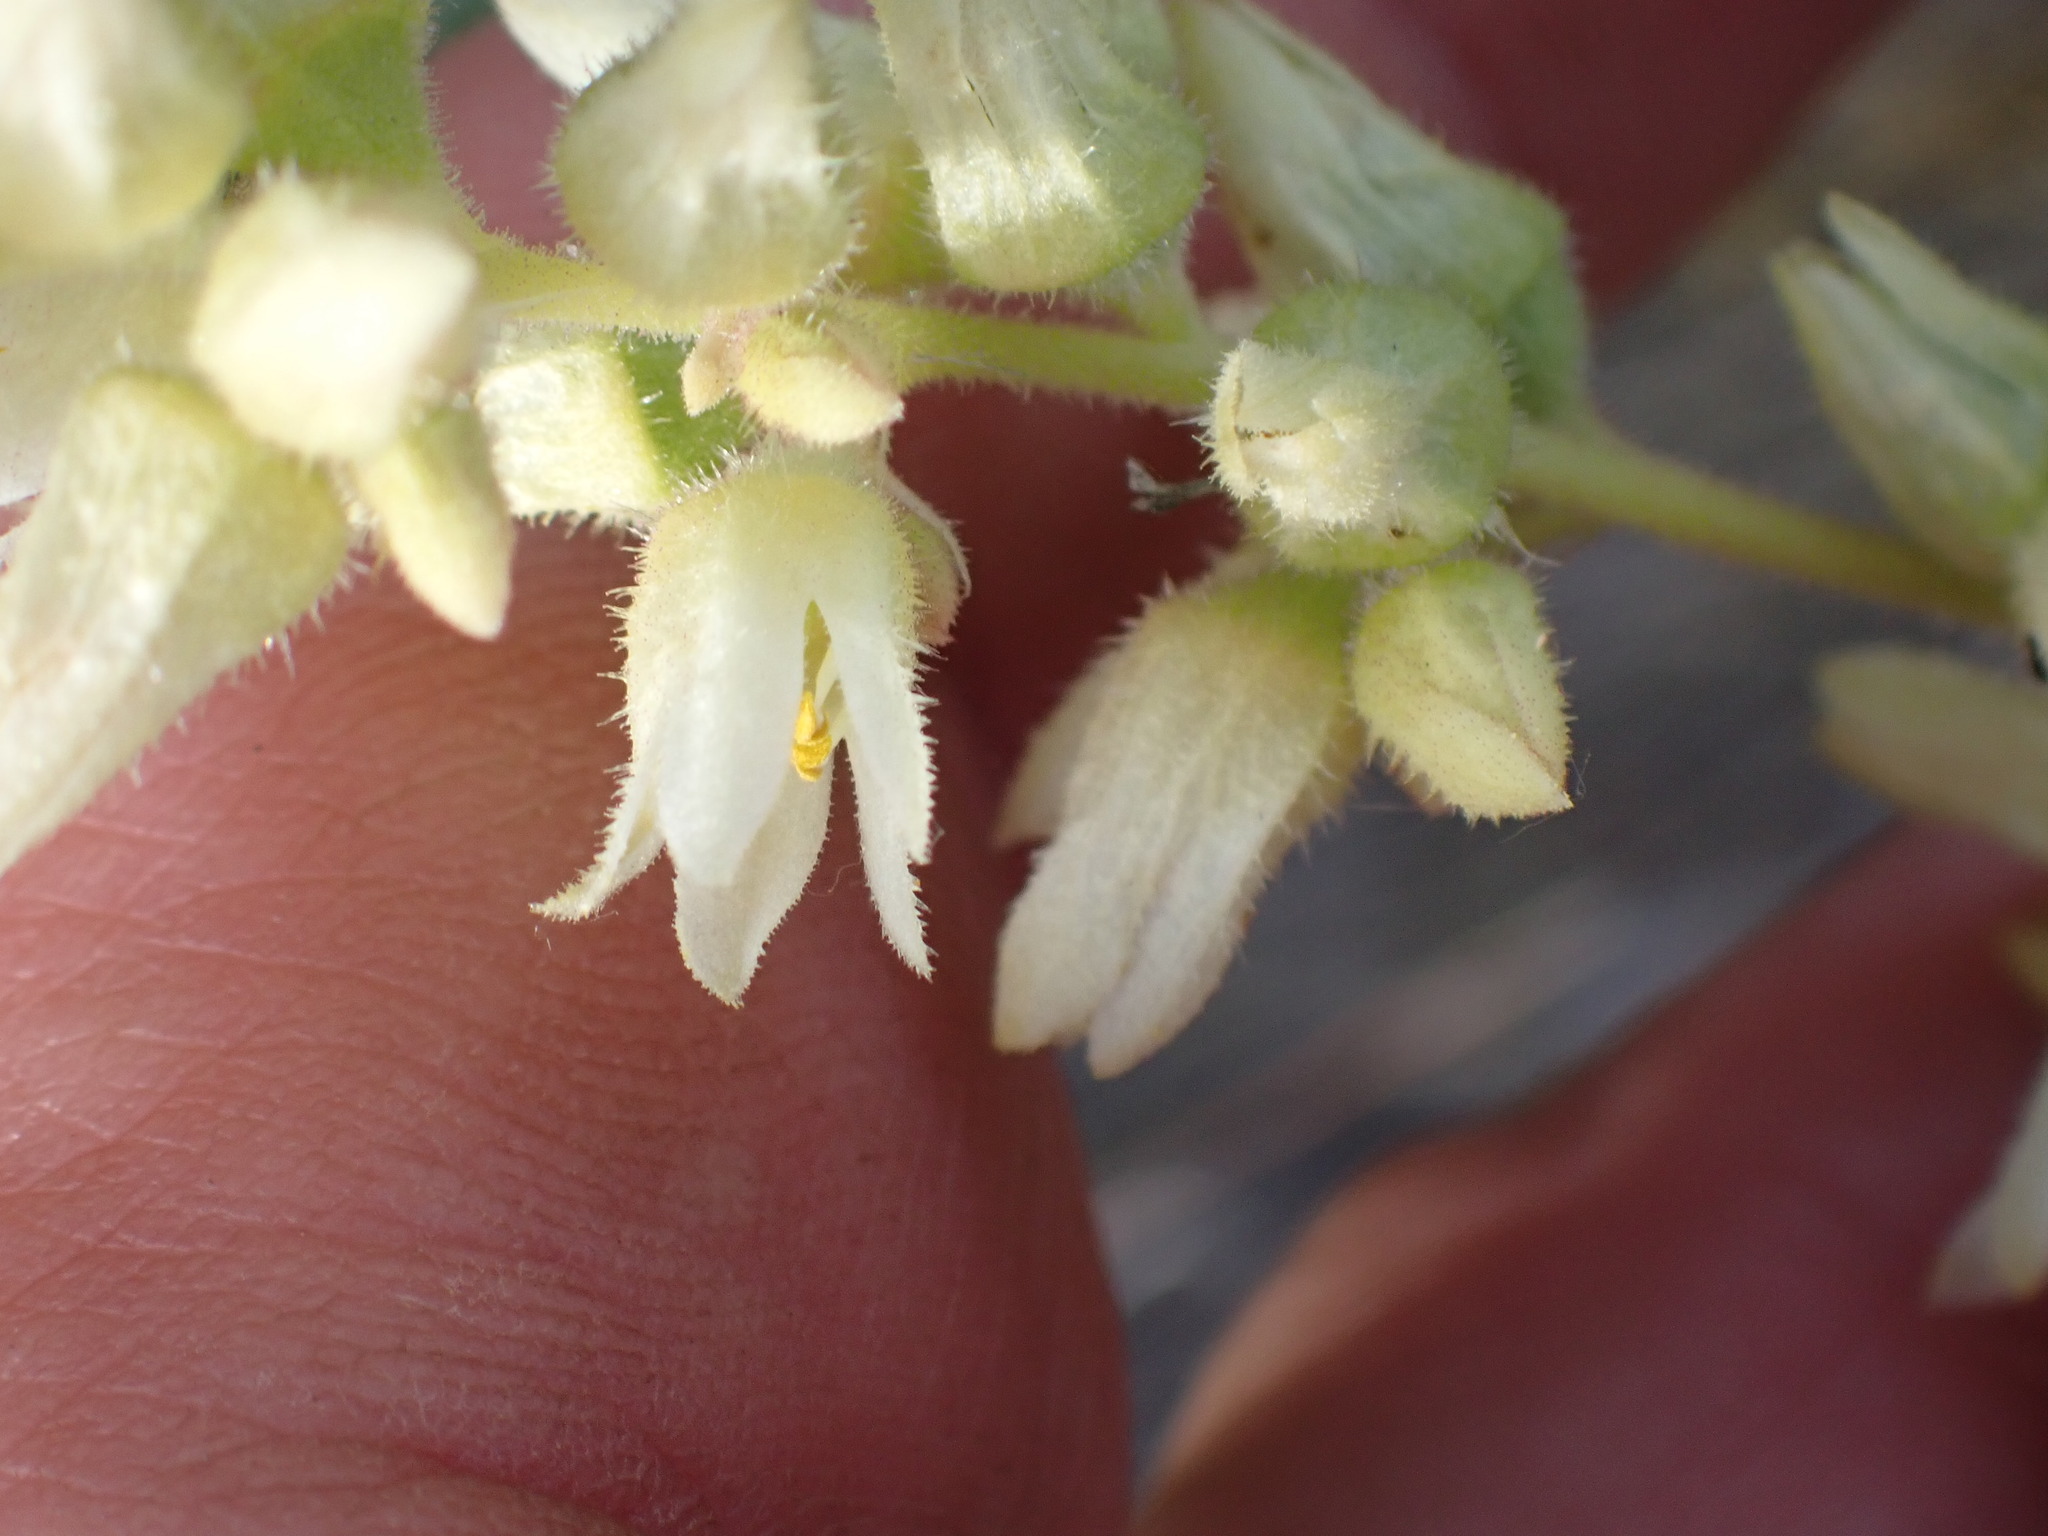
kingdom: Plantae
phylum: Tracheophyta
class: Magnoliopsida
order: Saxifragales
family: Saxifragaceae
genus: Heuchera
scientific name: Heuchera cylindrica
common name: Mat alumroot
